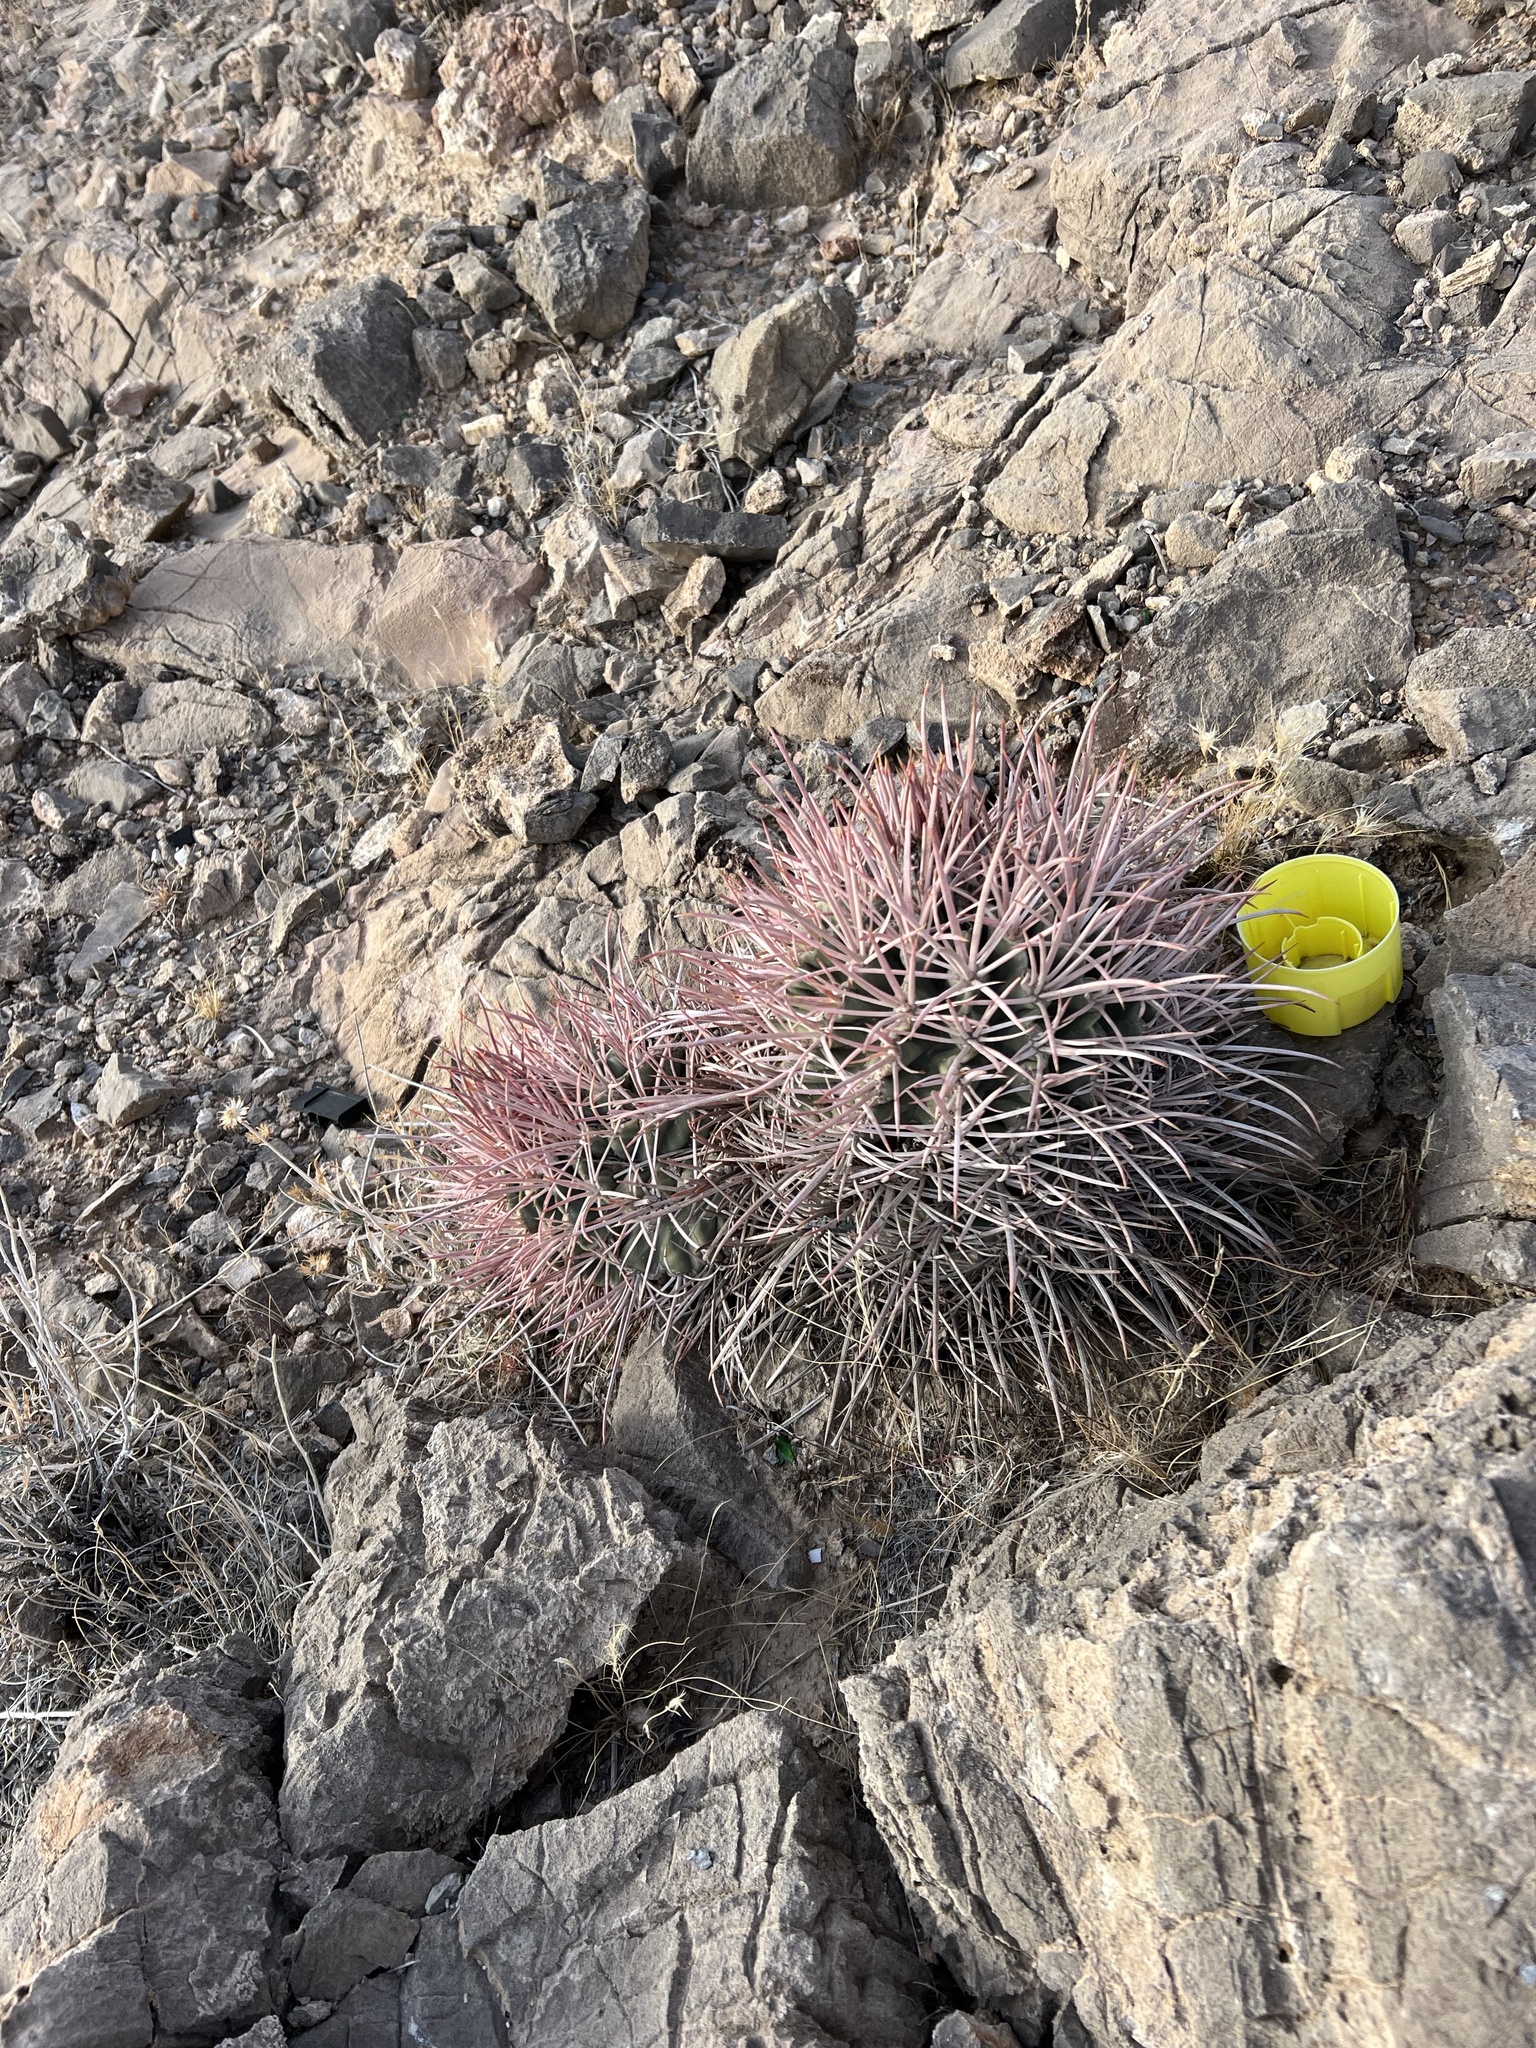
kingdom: Plantae
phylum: Tracheophyta
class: Magnoliopsida
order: Caryophyllales
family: Cactaceae
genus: Echinocactus
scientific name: Echinocactus polycephalus
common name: Cottontop cactus
